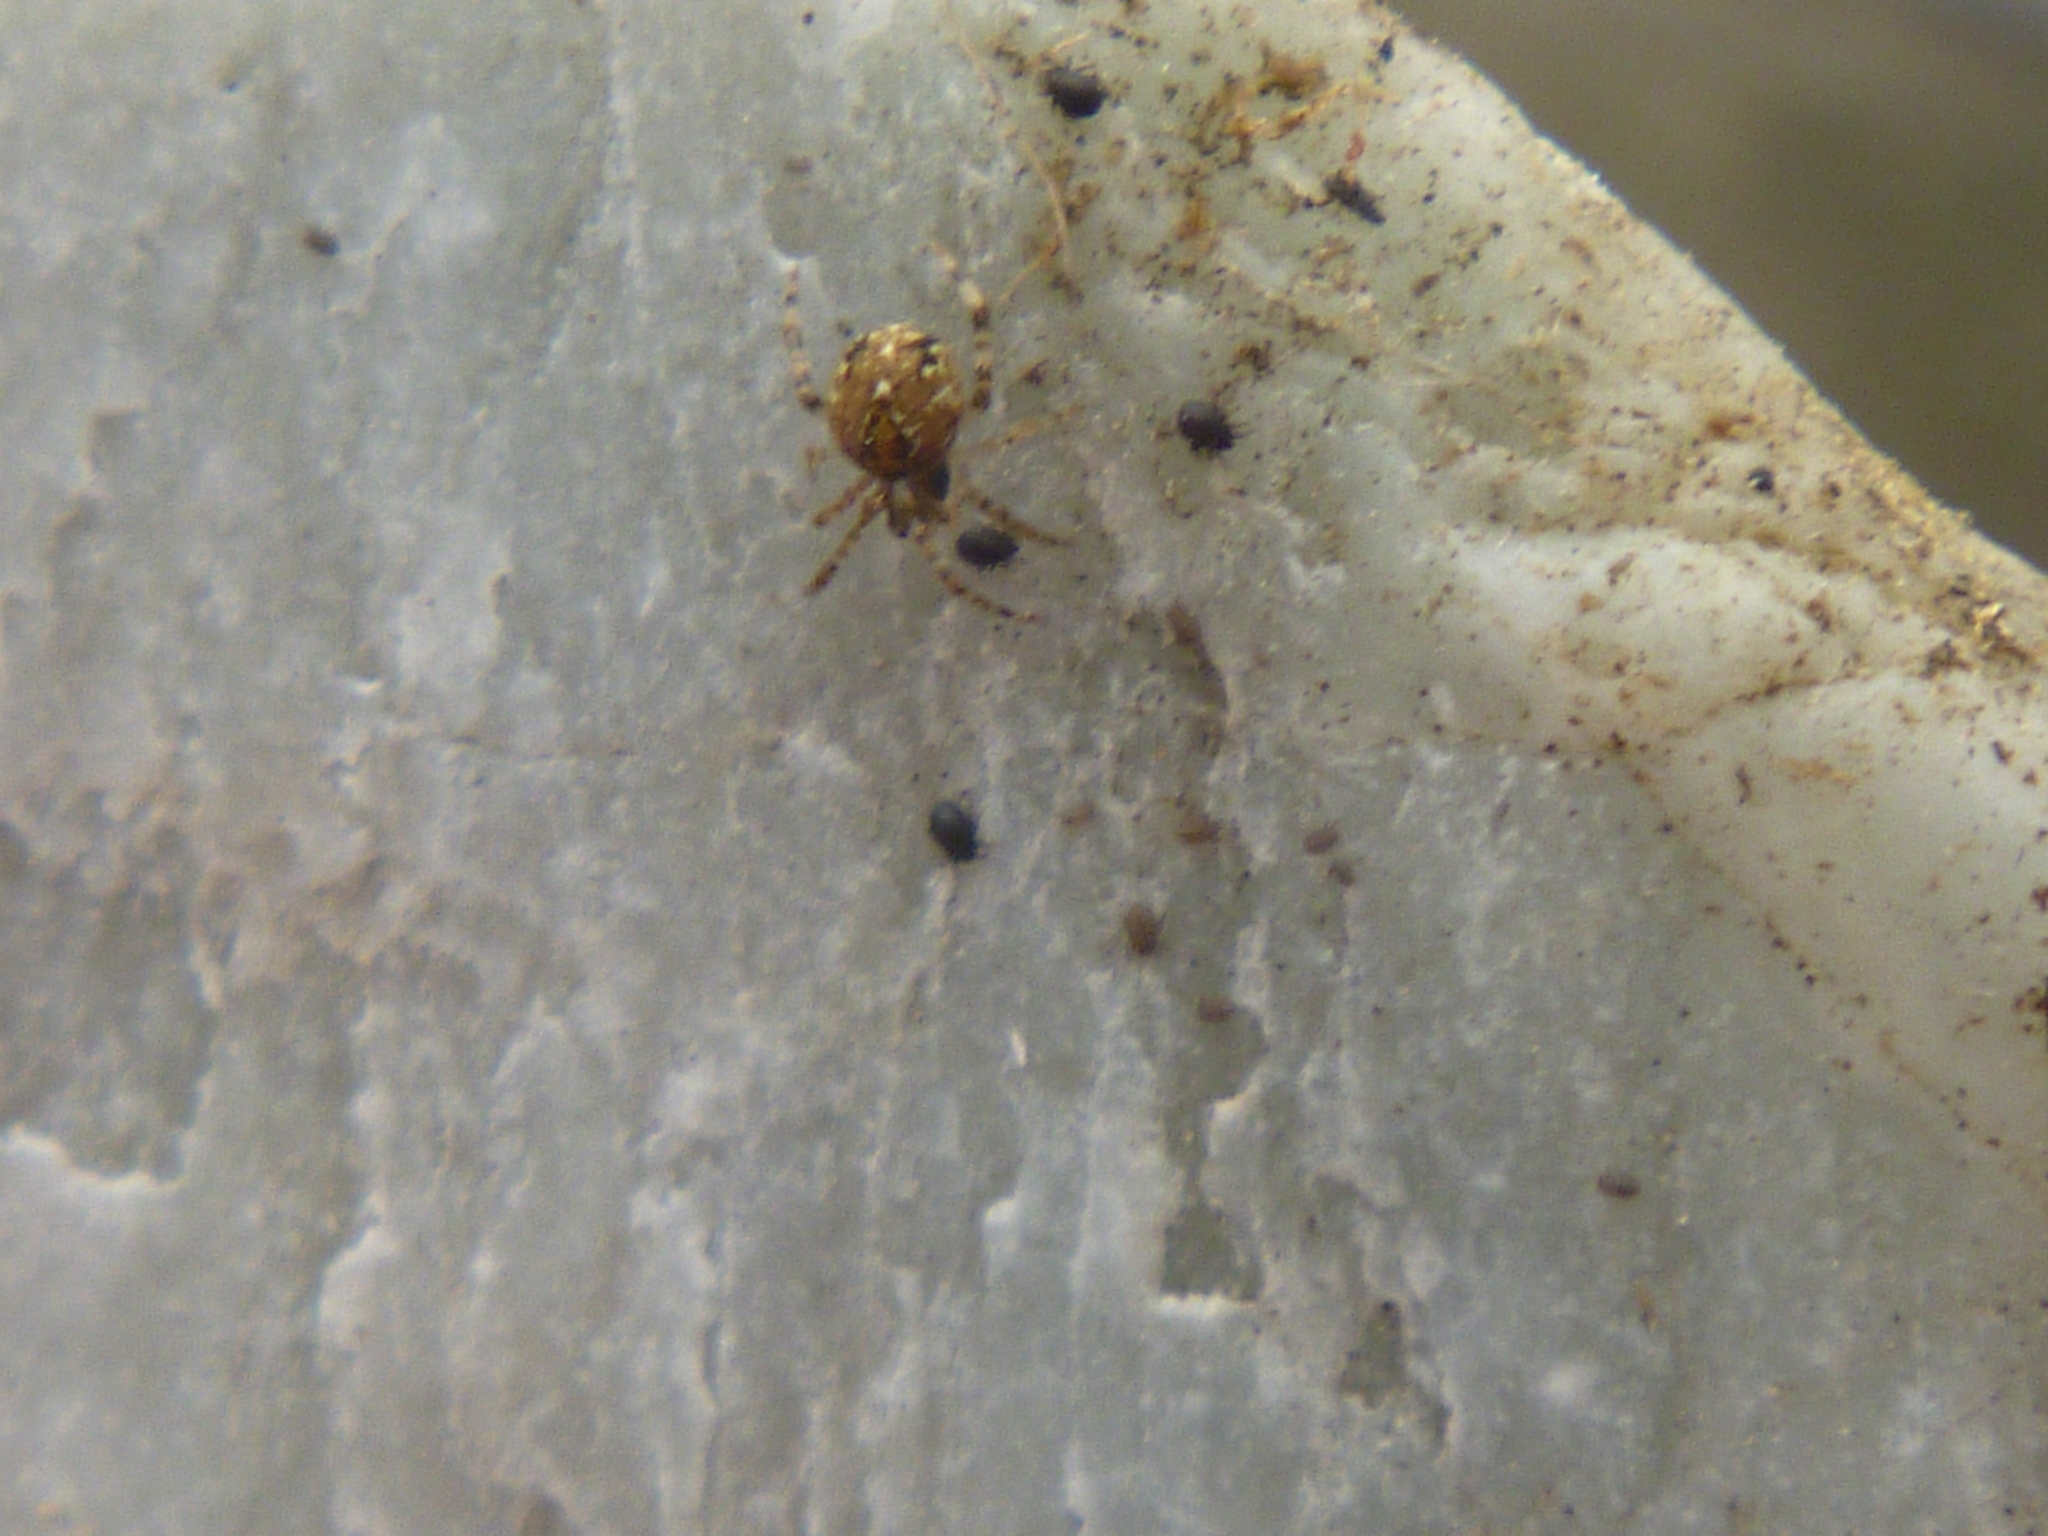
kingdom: Animalia
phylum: Arthropoda
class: Arachnida
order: Araneae
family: Theridiidae
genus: Cryptachaea
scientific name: Cryptachaea veruculata
